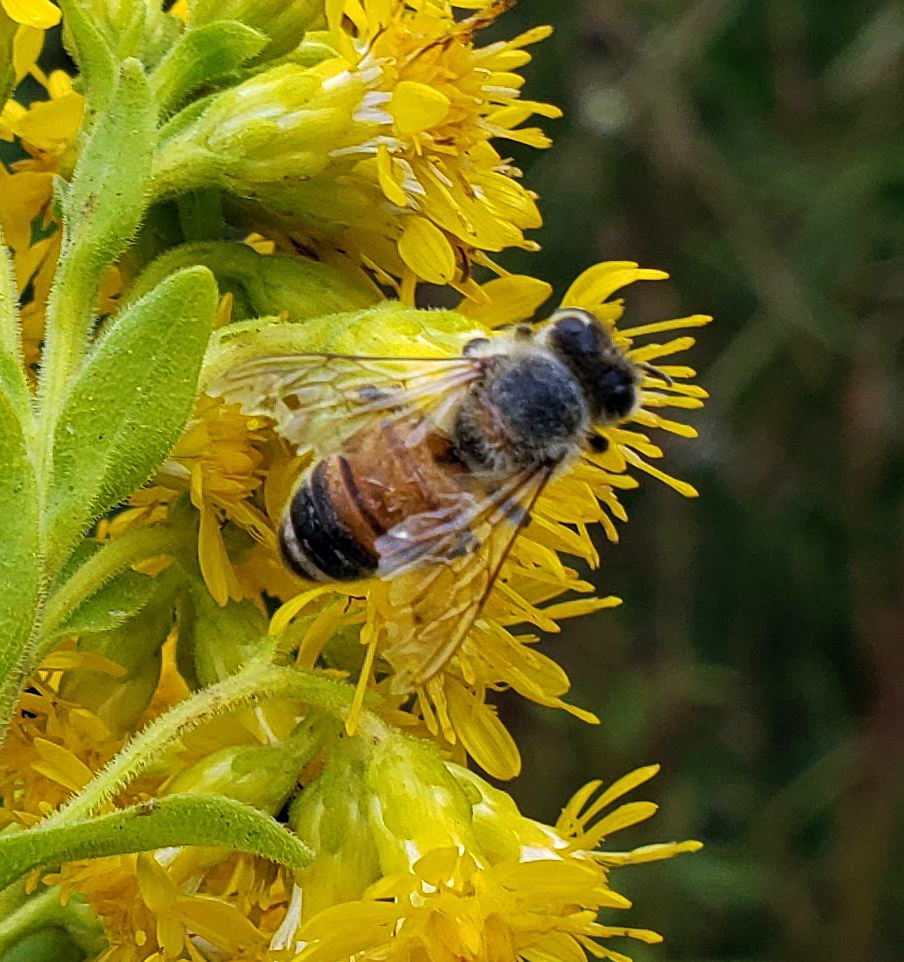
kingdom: Animalia
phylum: Arthropoda
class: Insecta
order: Hymenoptera
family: Apidae
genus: Apis
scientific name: Apis mellifera
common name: Honey bee
